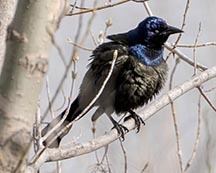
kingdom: Animalia
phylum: Chordata
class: Aves
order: Passeriformes
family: Icteridae
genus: Quiscalus
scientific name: Quiscalus quiscula
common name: Common grackle
